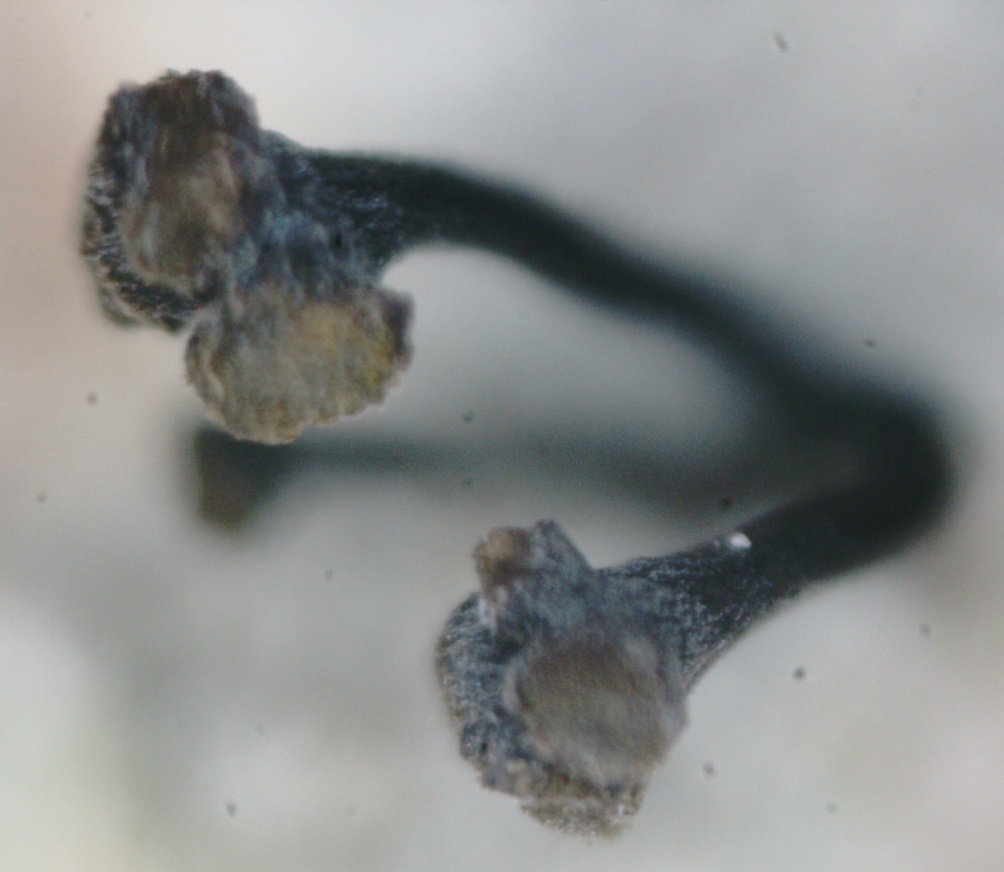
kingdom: Fungi
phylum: Ascomycota
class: Coniocybomycetes
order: Coniocybales
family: Coniocybaceae
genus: Chaenotheca
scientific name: Chaenotheca ferruginea
